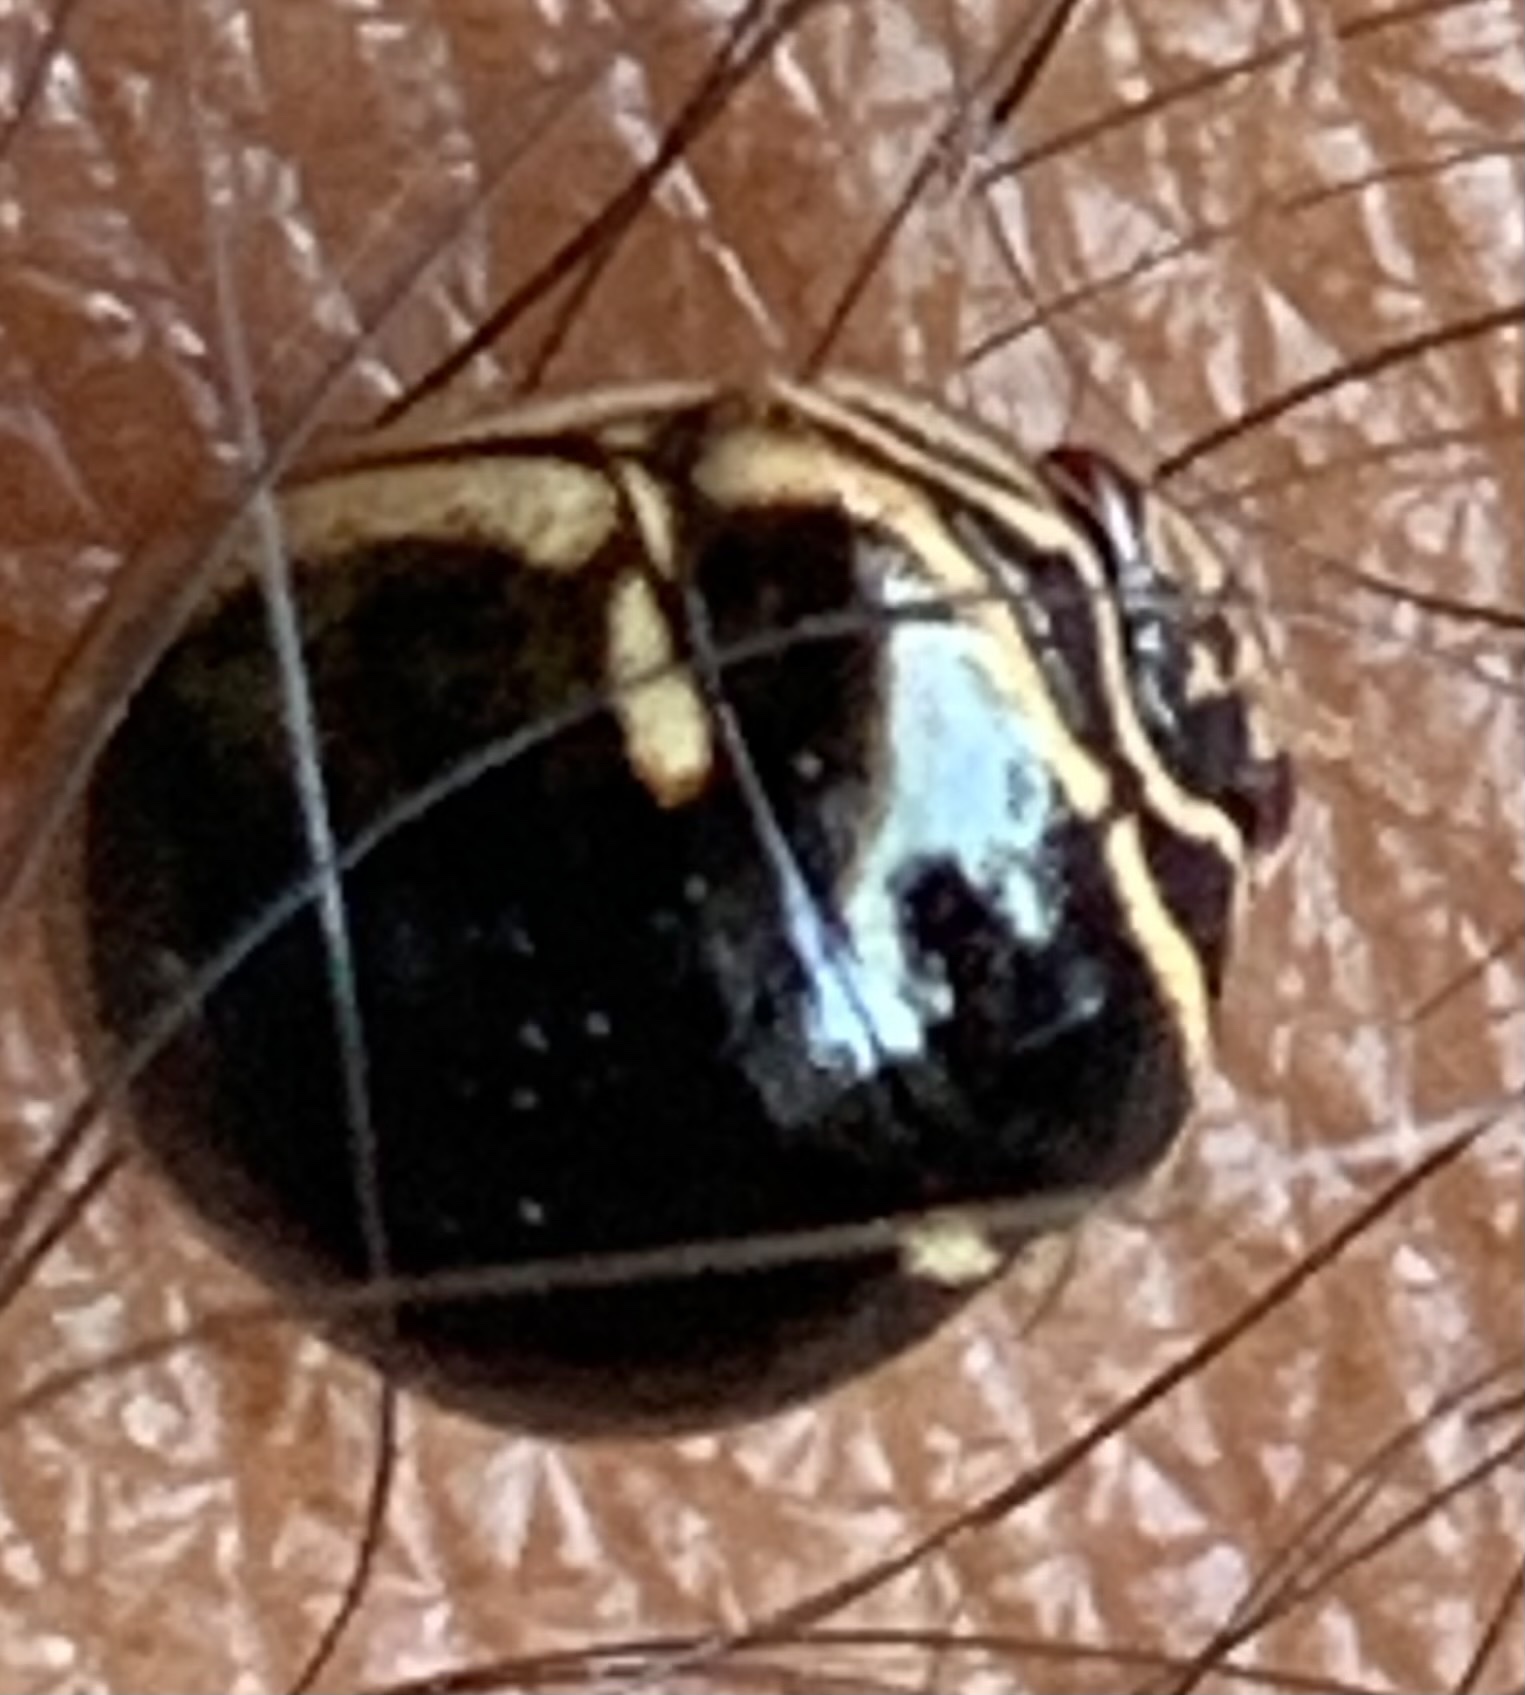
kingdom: Animalia
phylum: Arthropoda
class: Insecta
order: Hemiptera
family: Plataspidae
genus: Coptosoma
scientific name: Coptosoma
